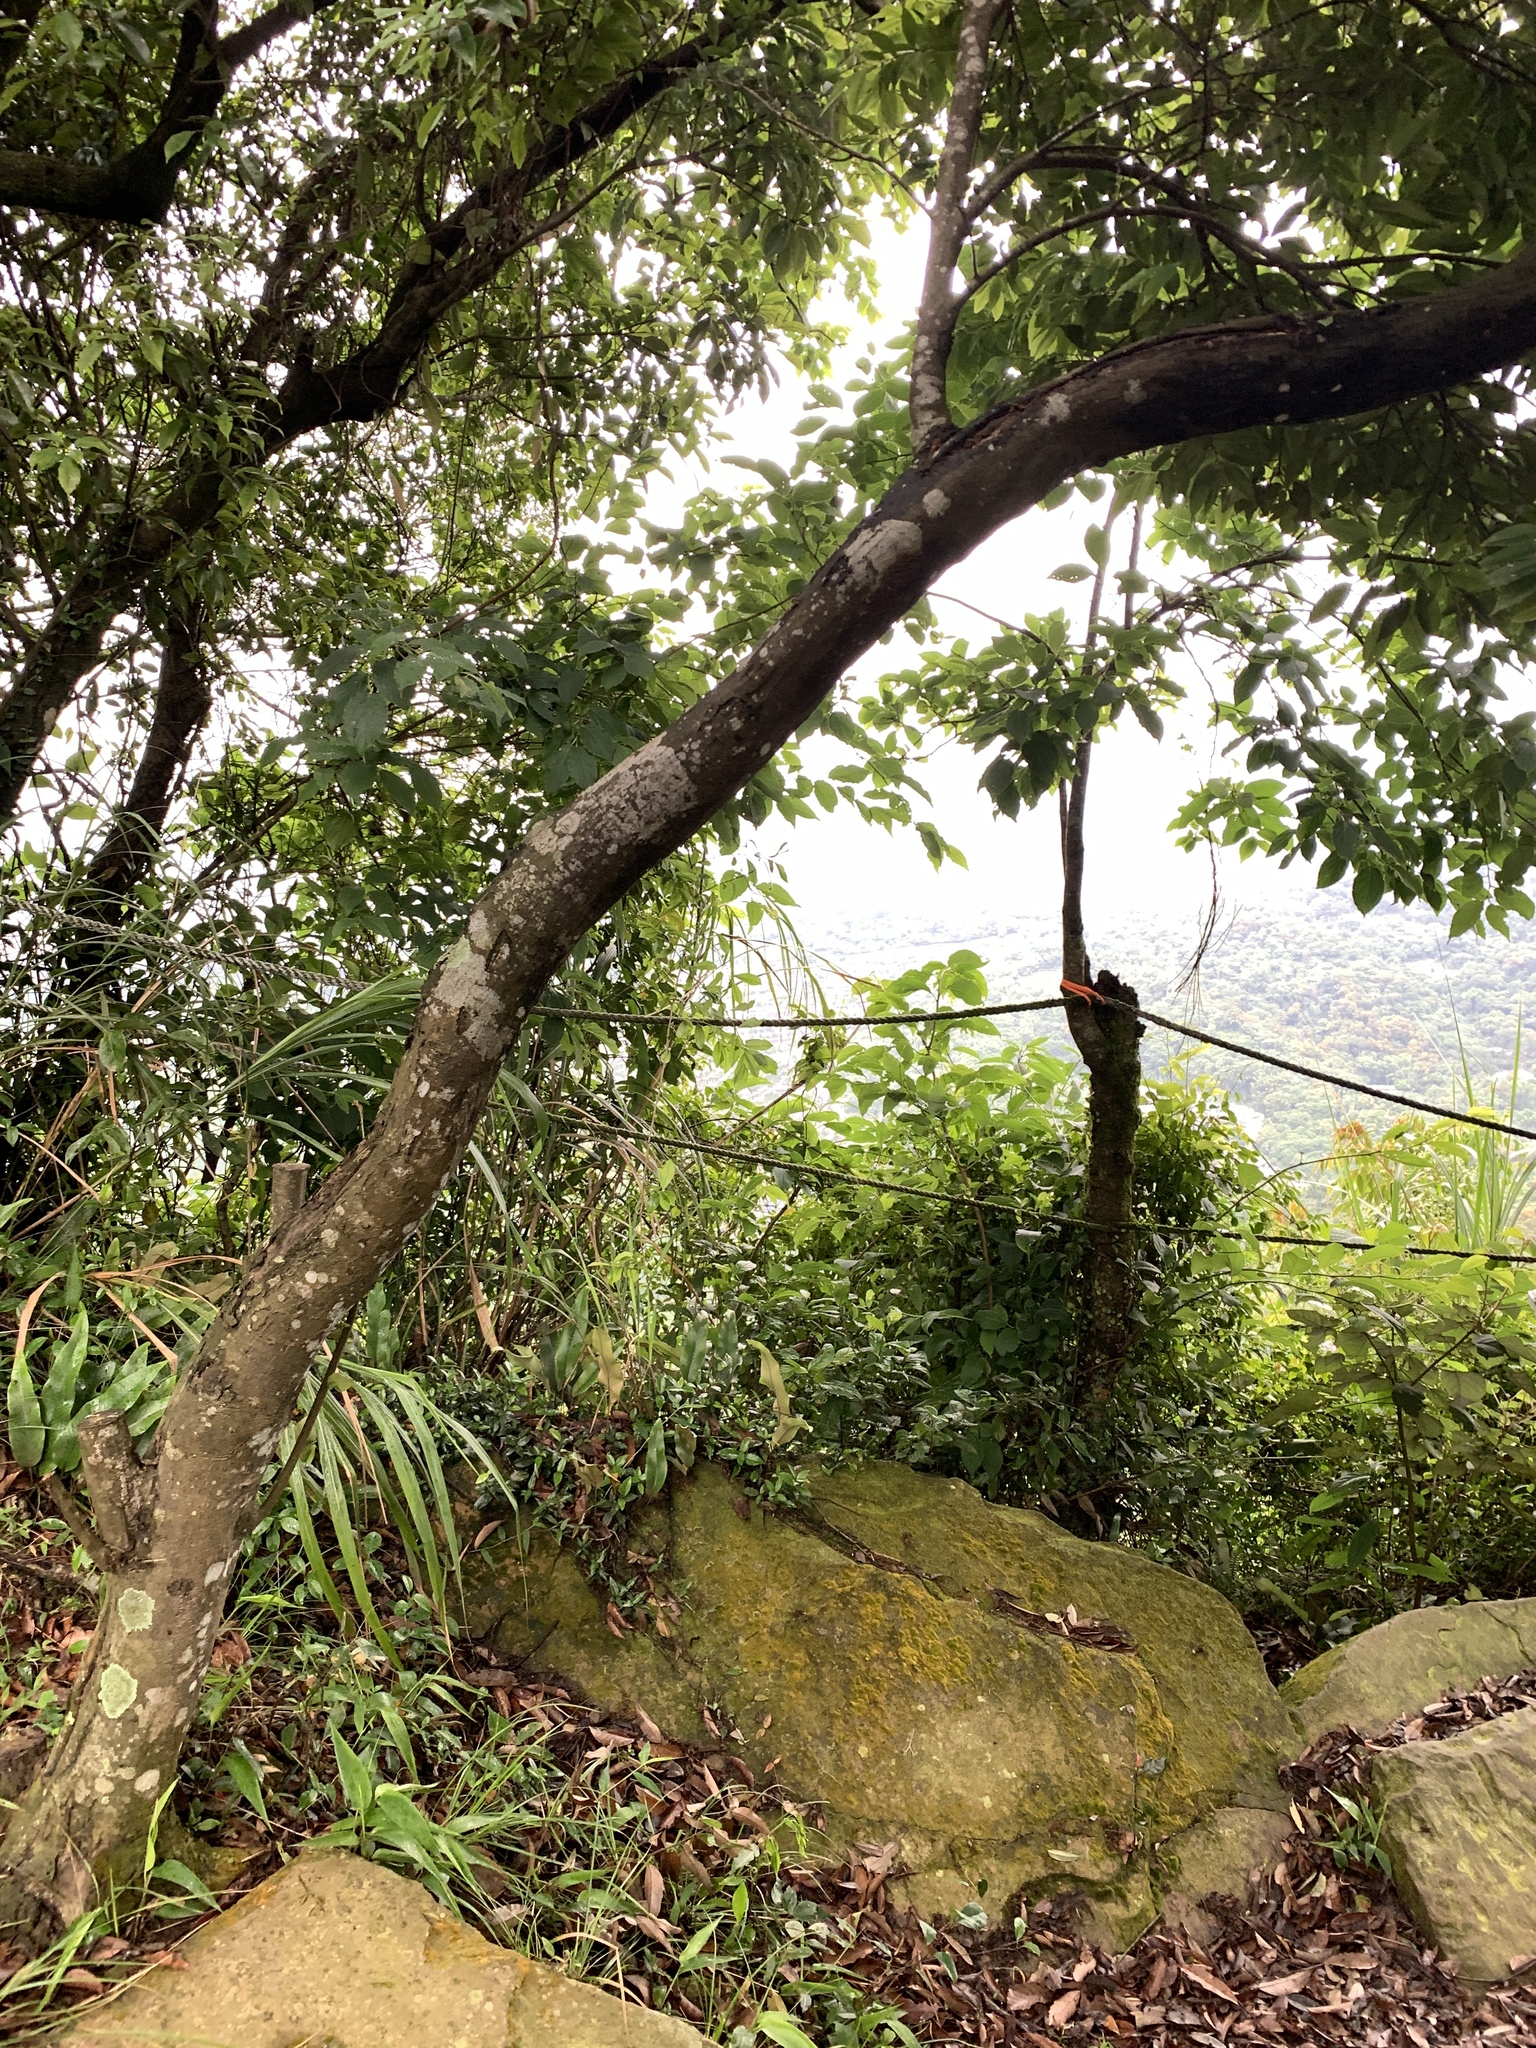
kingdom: Plantae
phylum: Tracheophyta
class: Magnoliopsida
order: Fagales
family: Fagaceae
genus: Lithocarpus
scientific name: Lithocarpus uraianus
